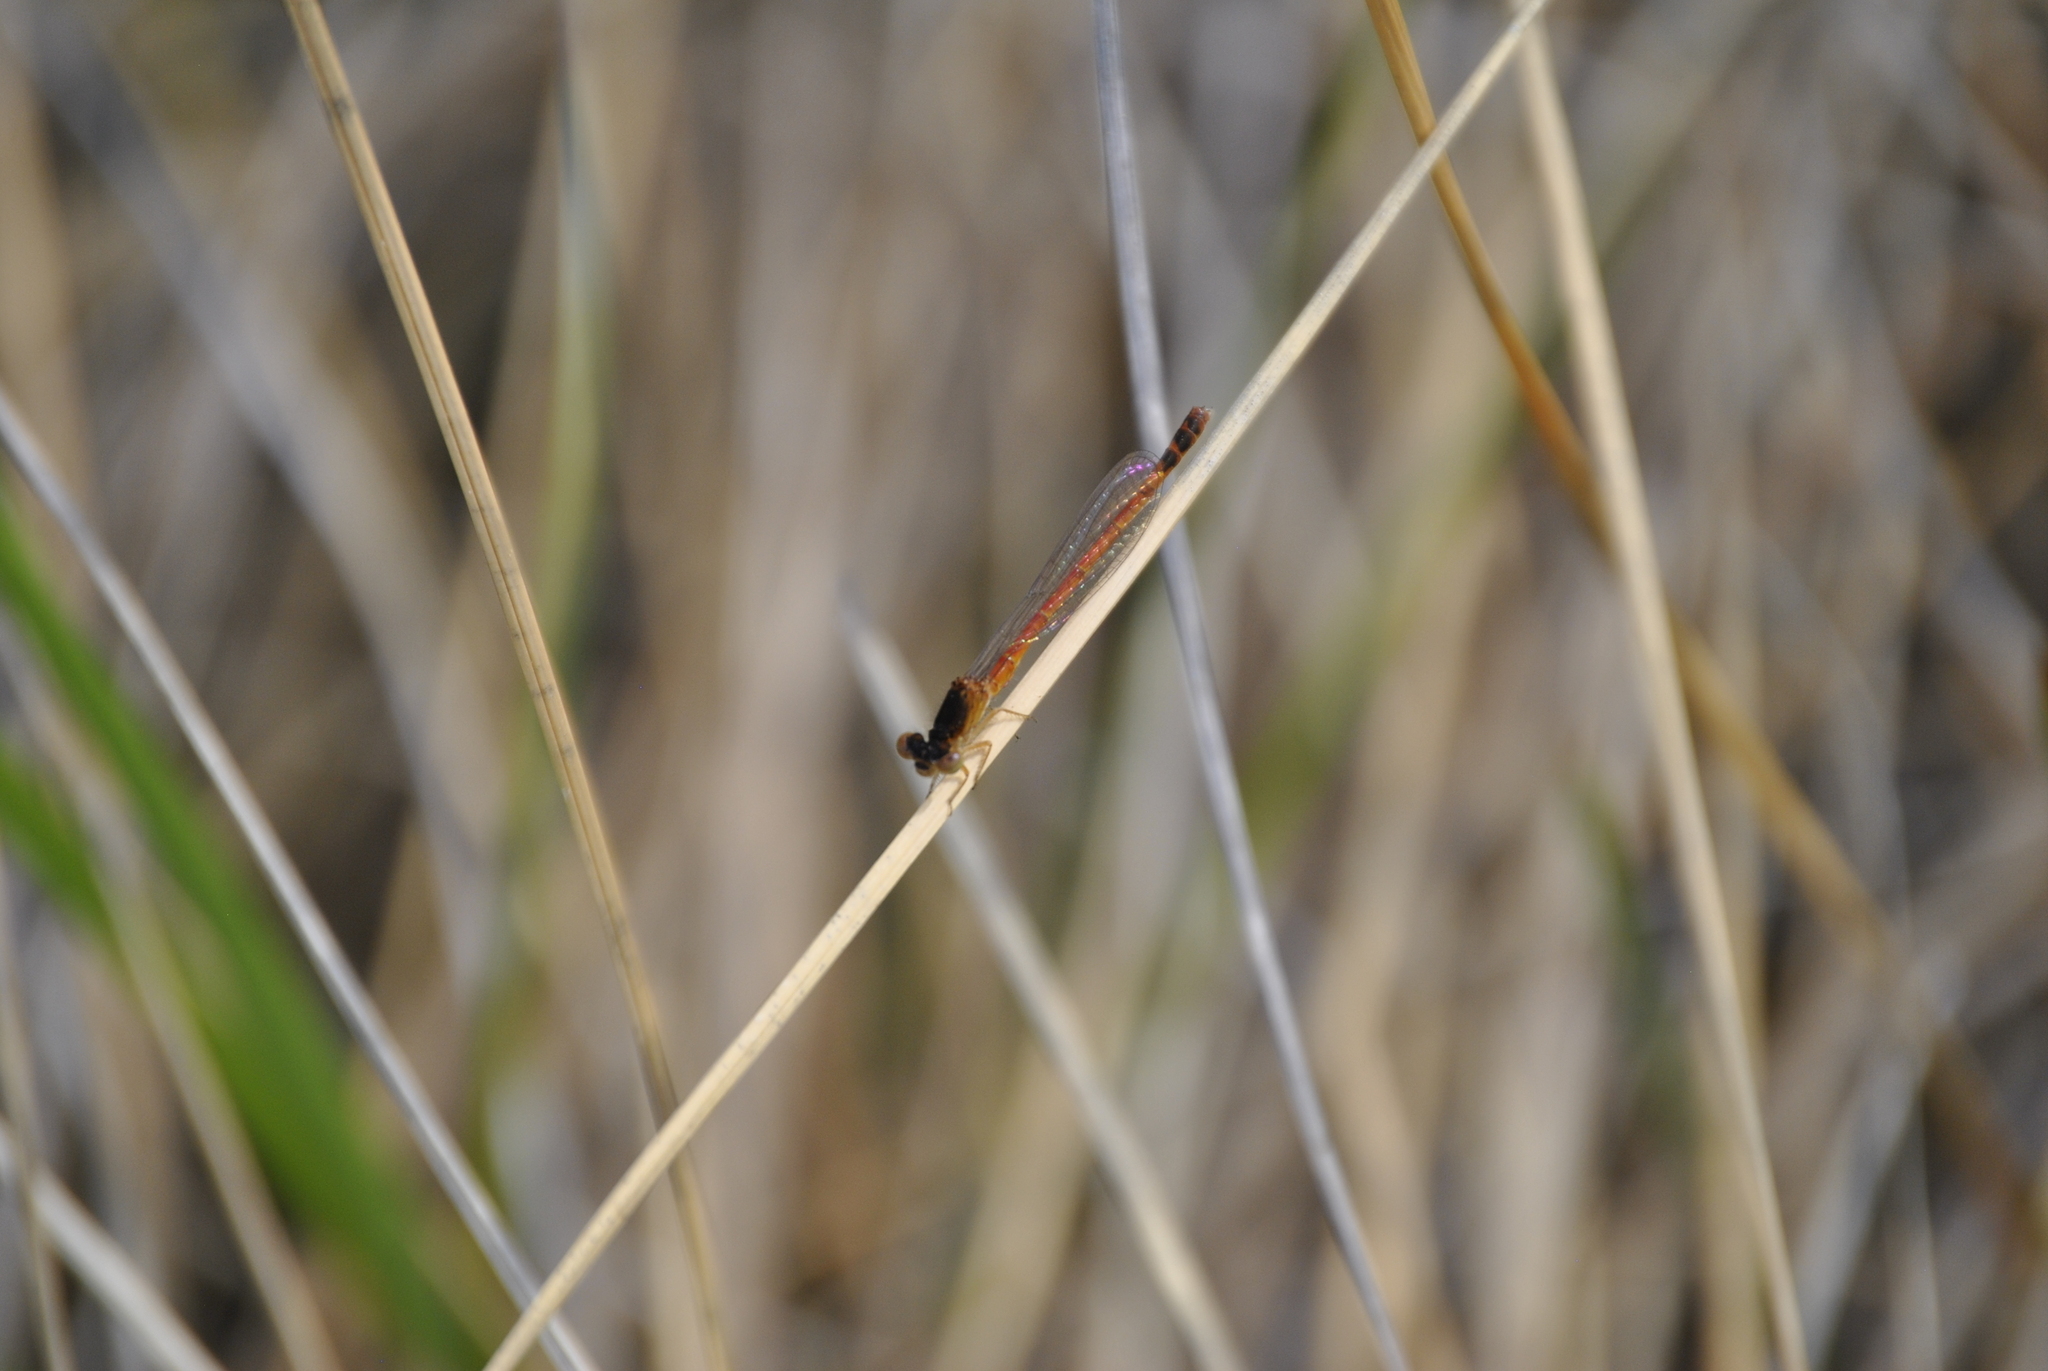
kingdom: Animalia
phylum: Arthropoda
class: Insecta
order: Odonata
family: Coenagrionidae
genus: Amphiagrion
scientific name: Amphiagrion saucium
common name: Eastern red damsel
